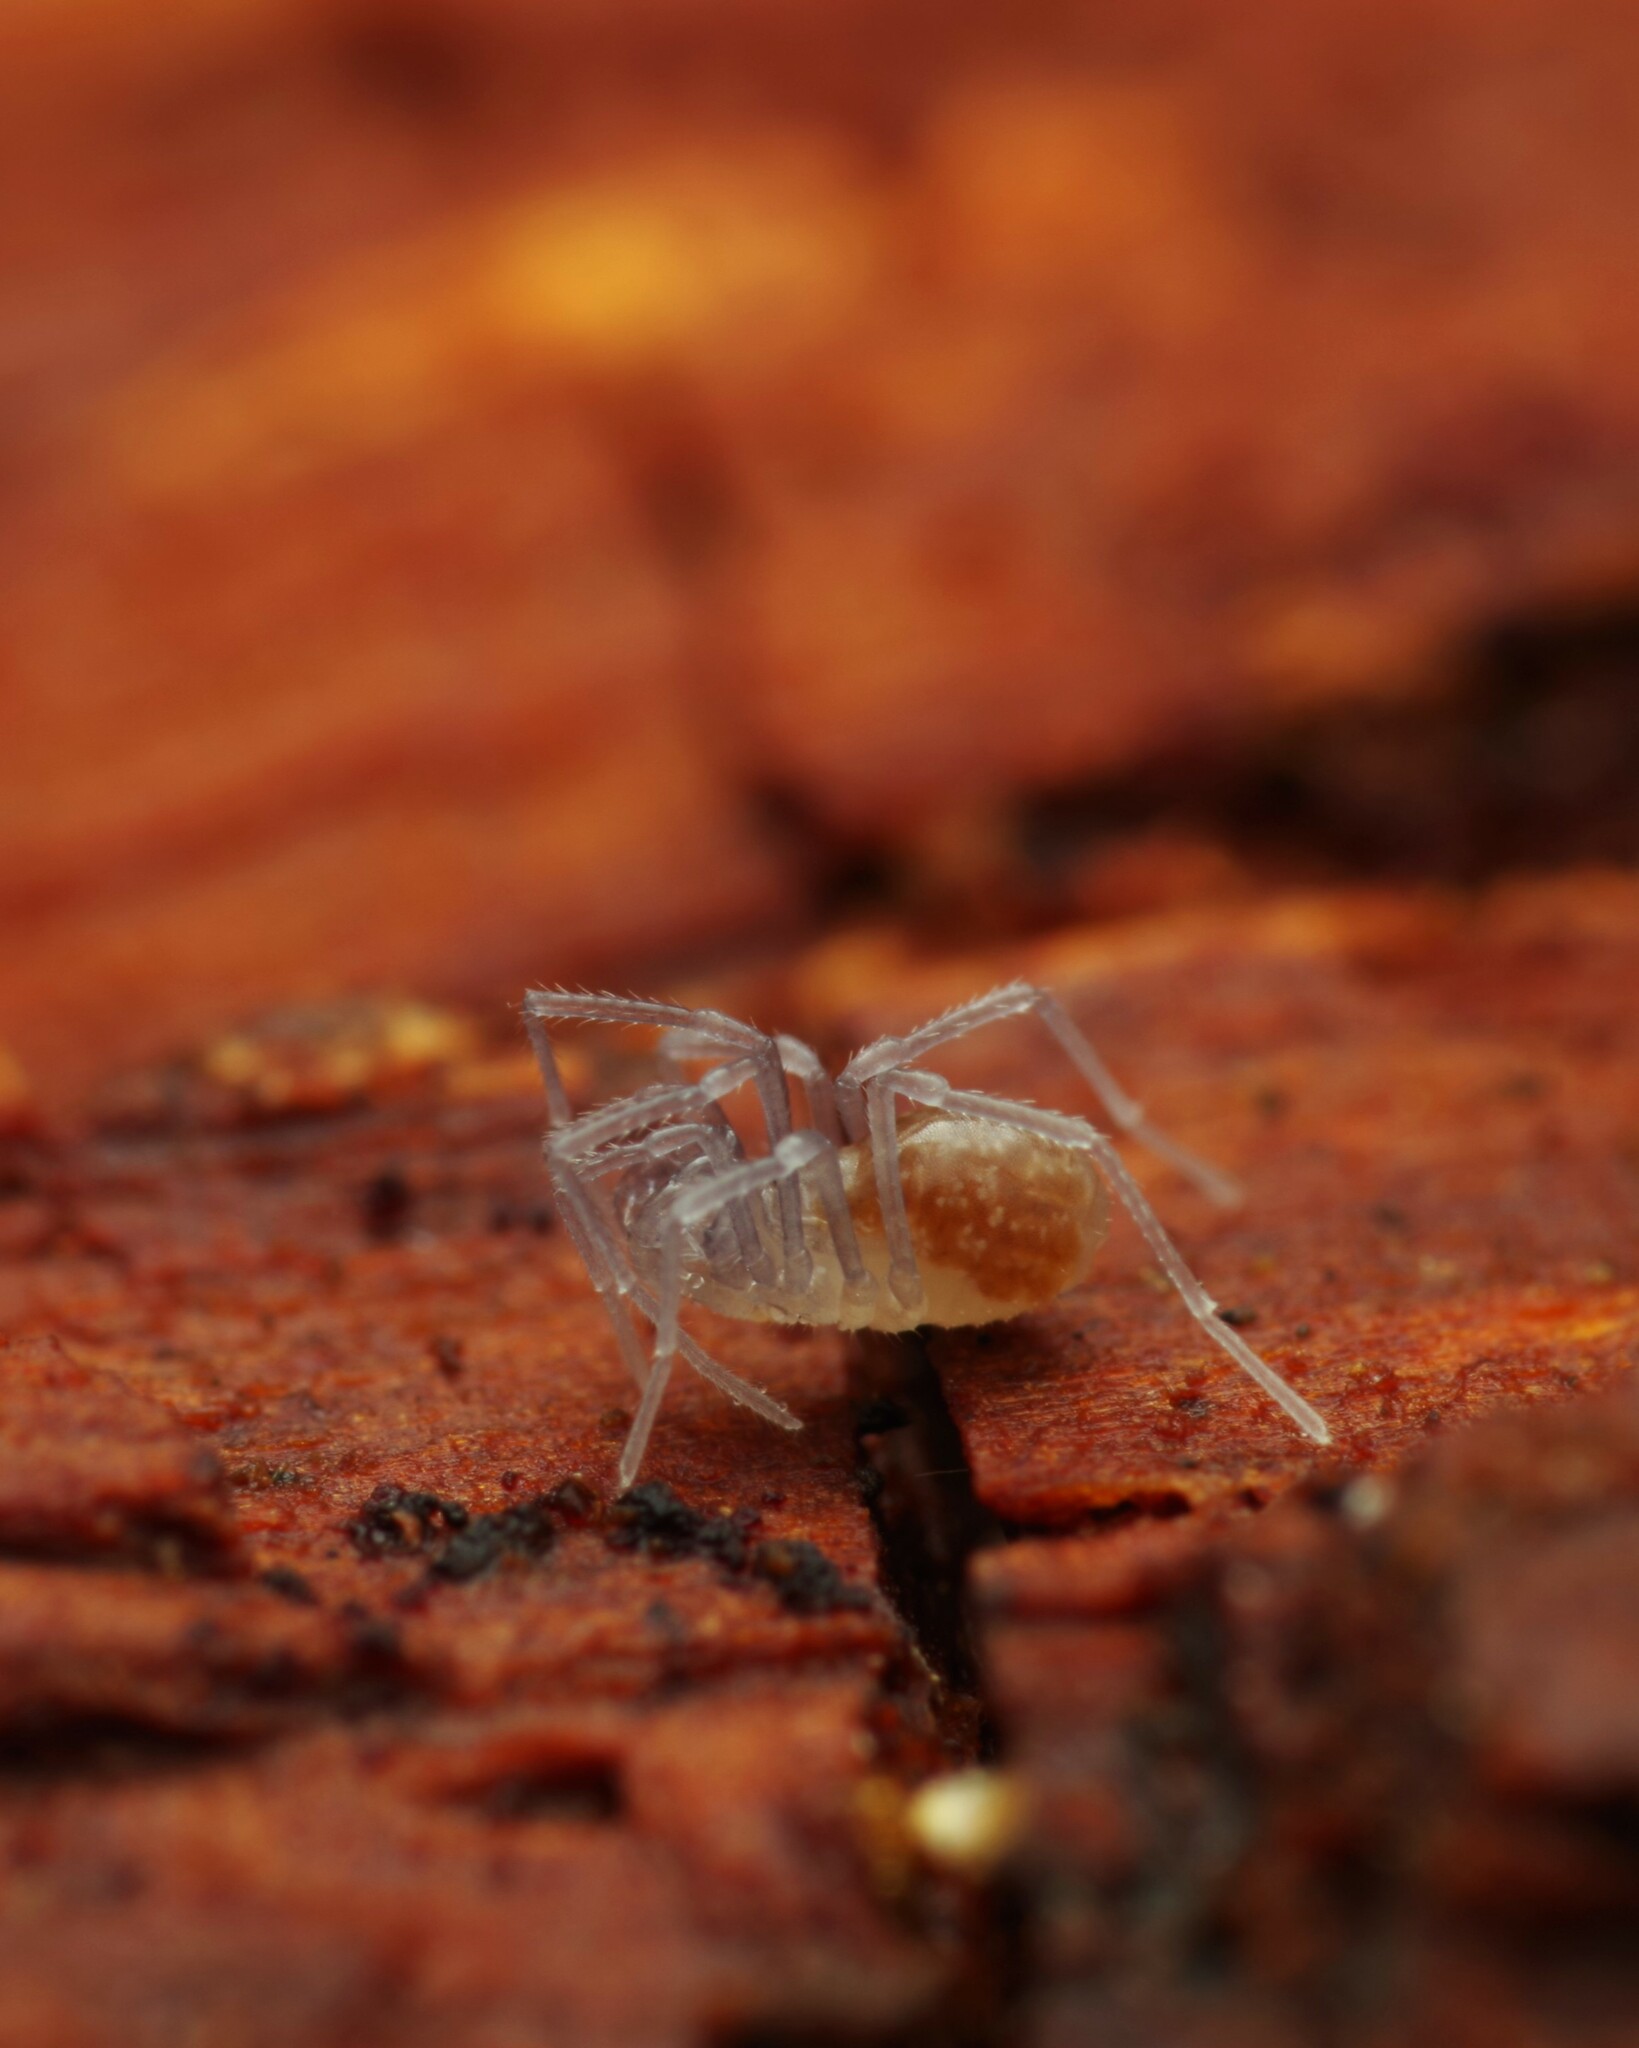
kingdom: Animalia
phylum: Arthropoda
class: Arachnida
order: Opiliones
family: Cladonychiidae
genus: Holoscotolemon
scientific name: Holoscotolemon querilhaci
